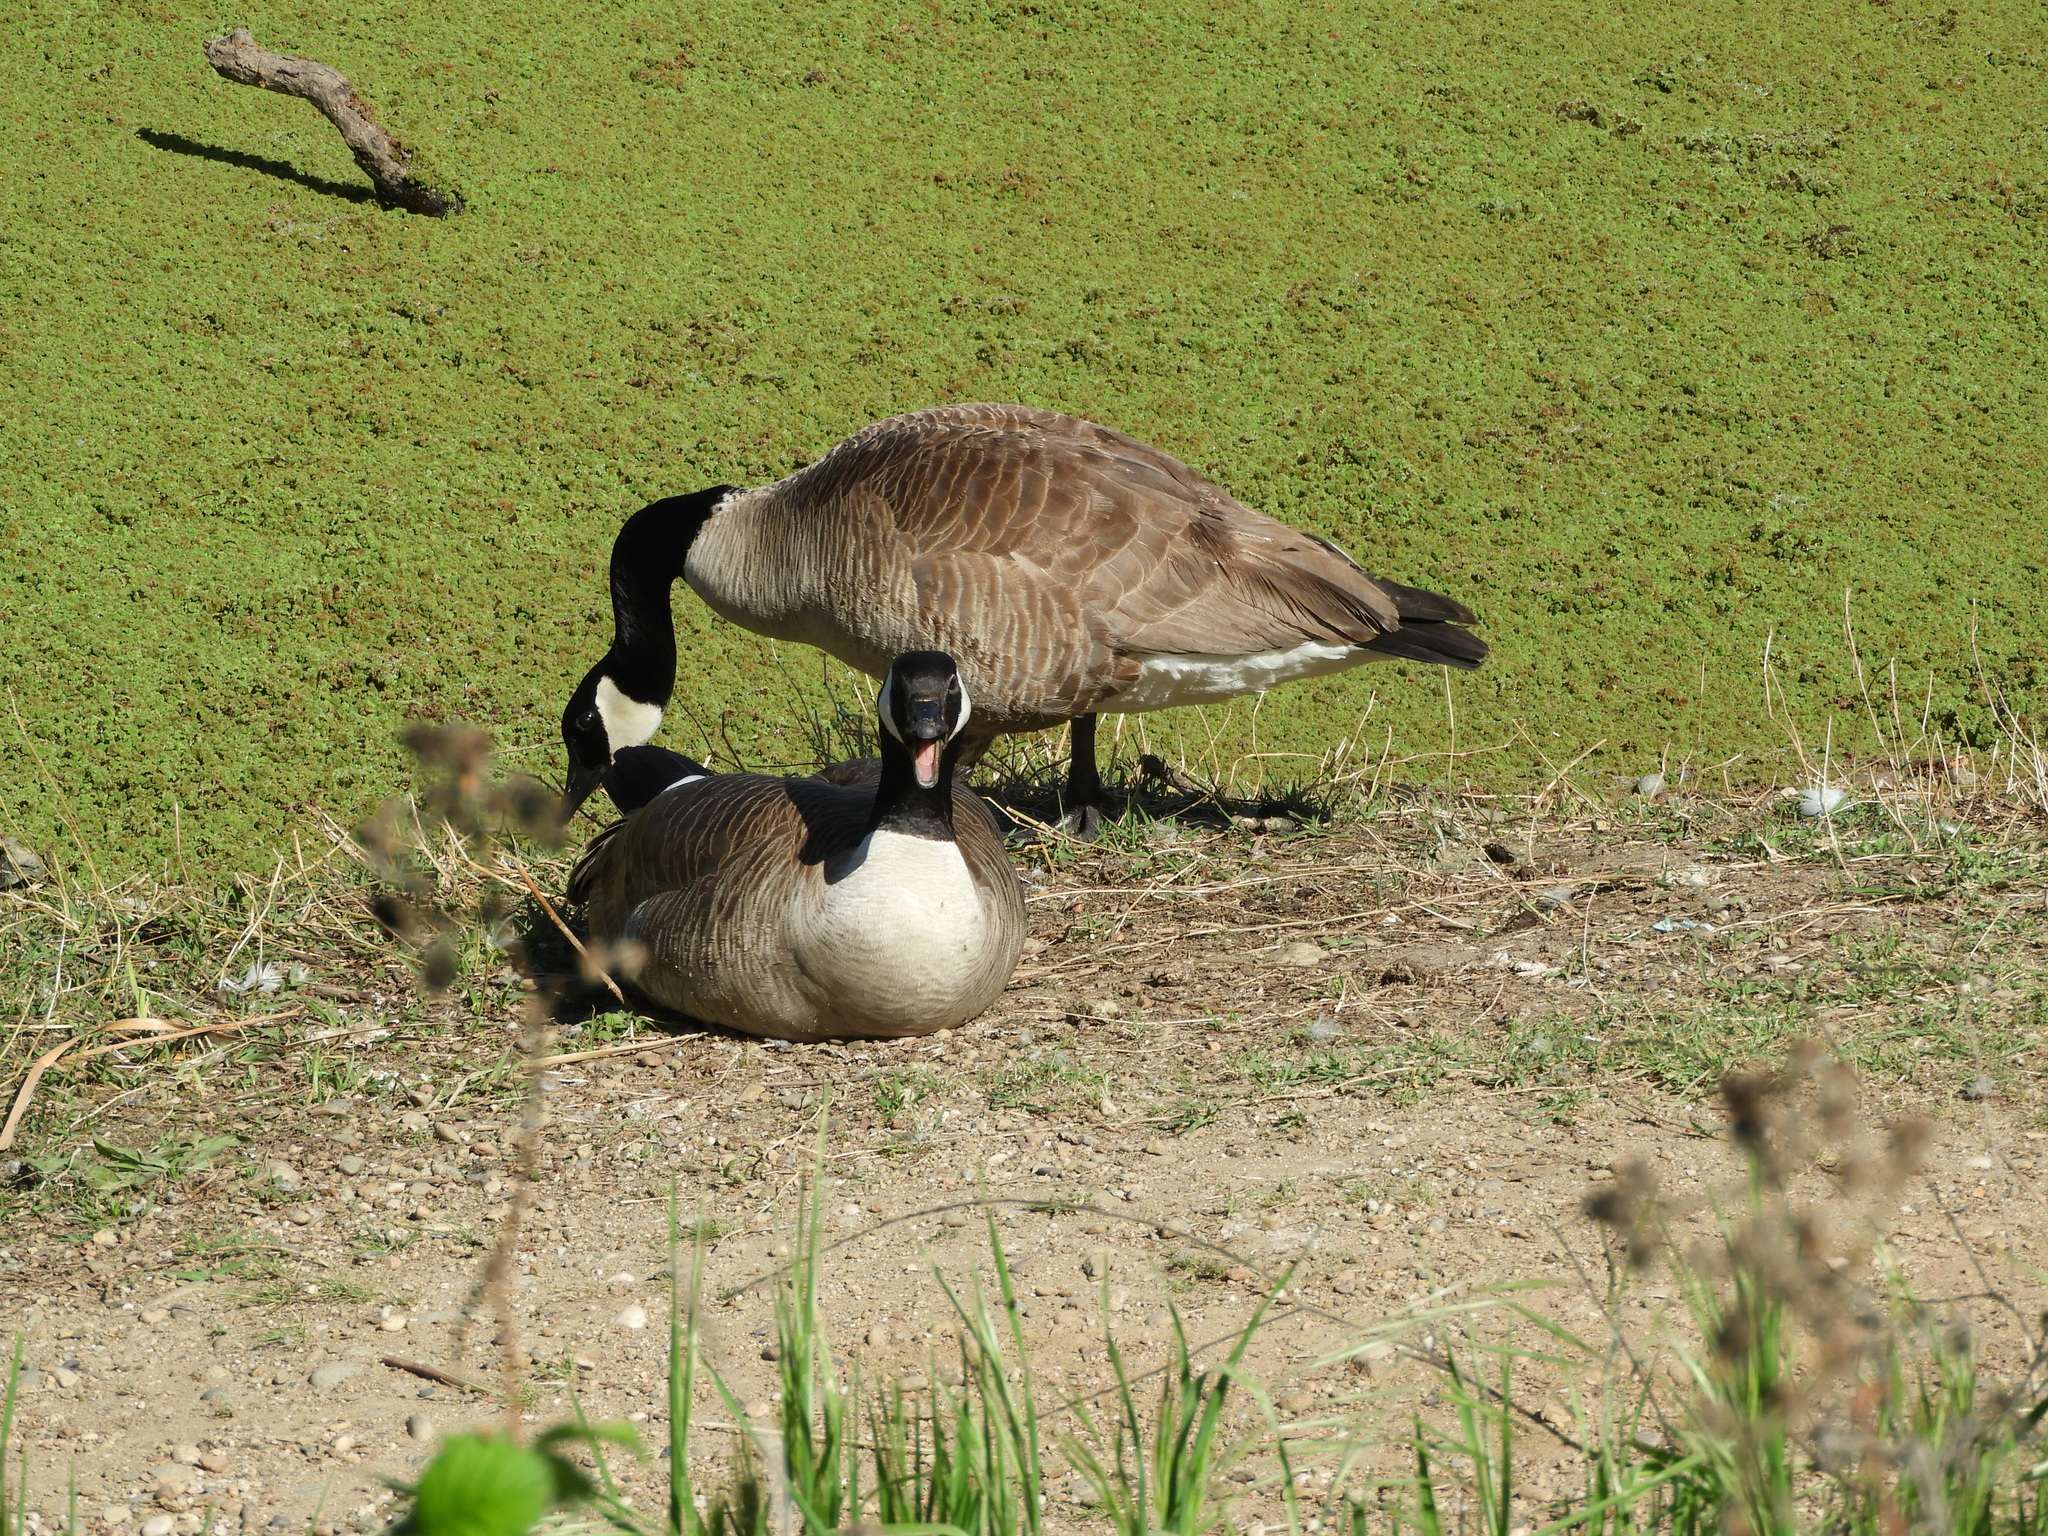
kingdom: Animalia
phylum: Chordata
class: Aves
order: Anseriformes
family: Anatidae
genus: Branta
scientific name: Branta canadensis
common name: Canada goose
